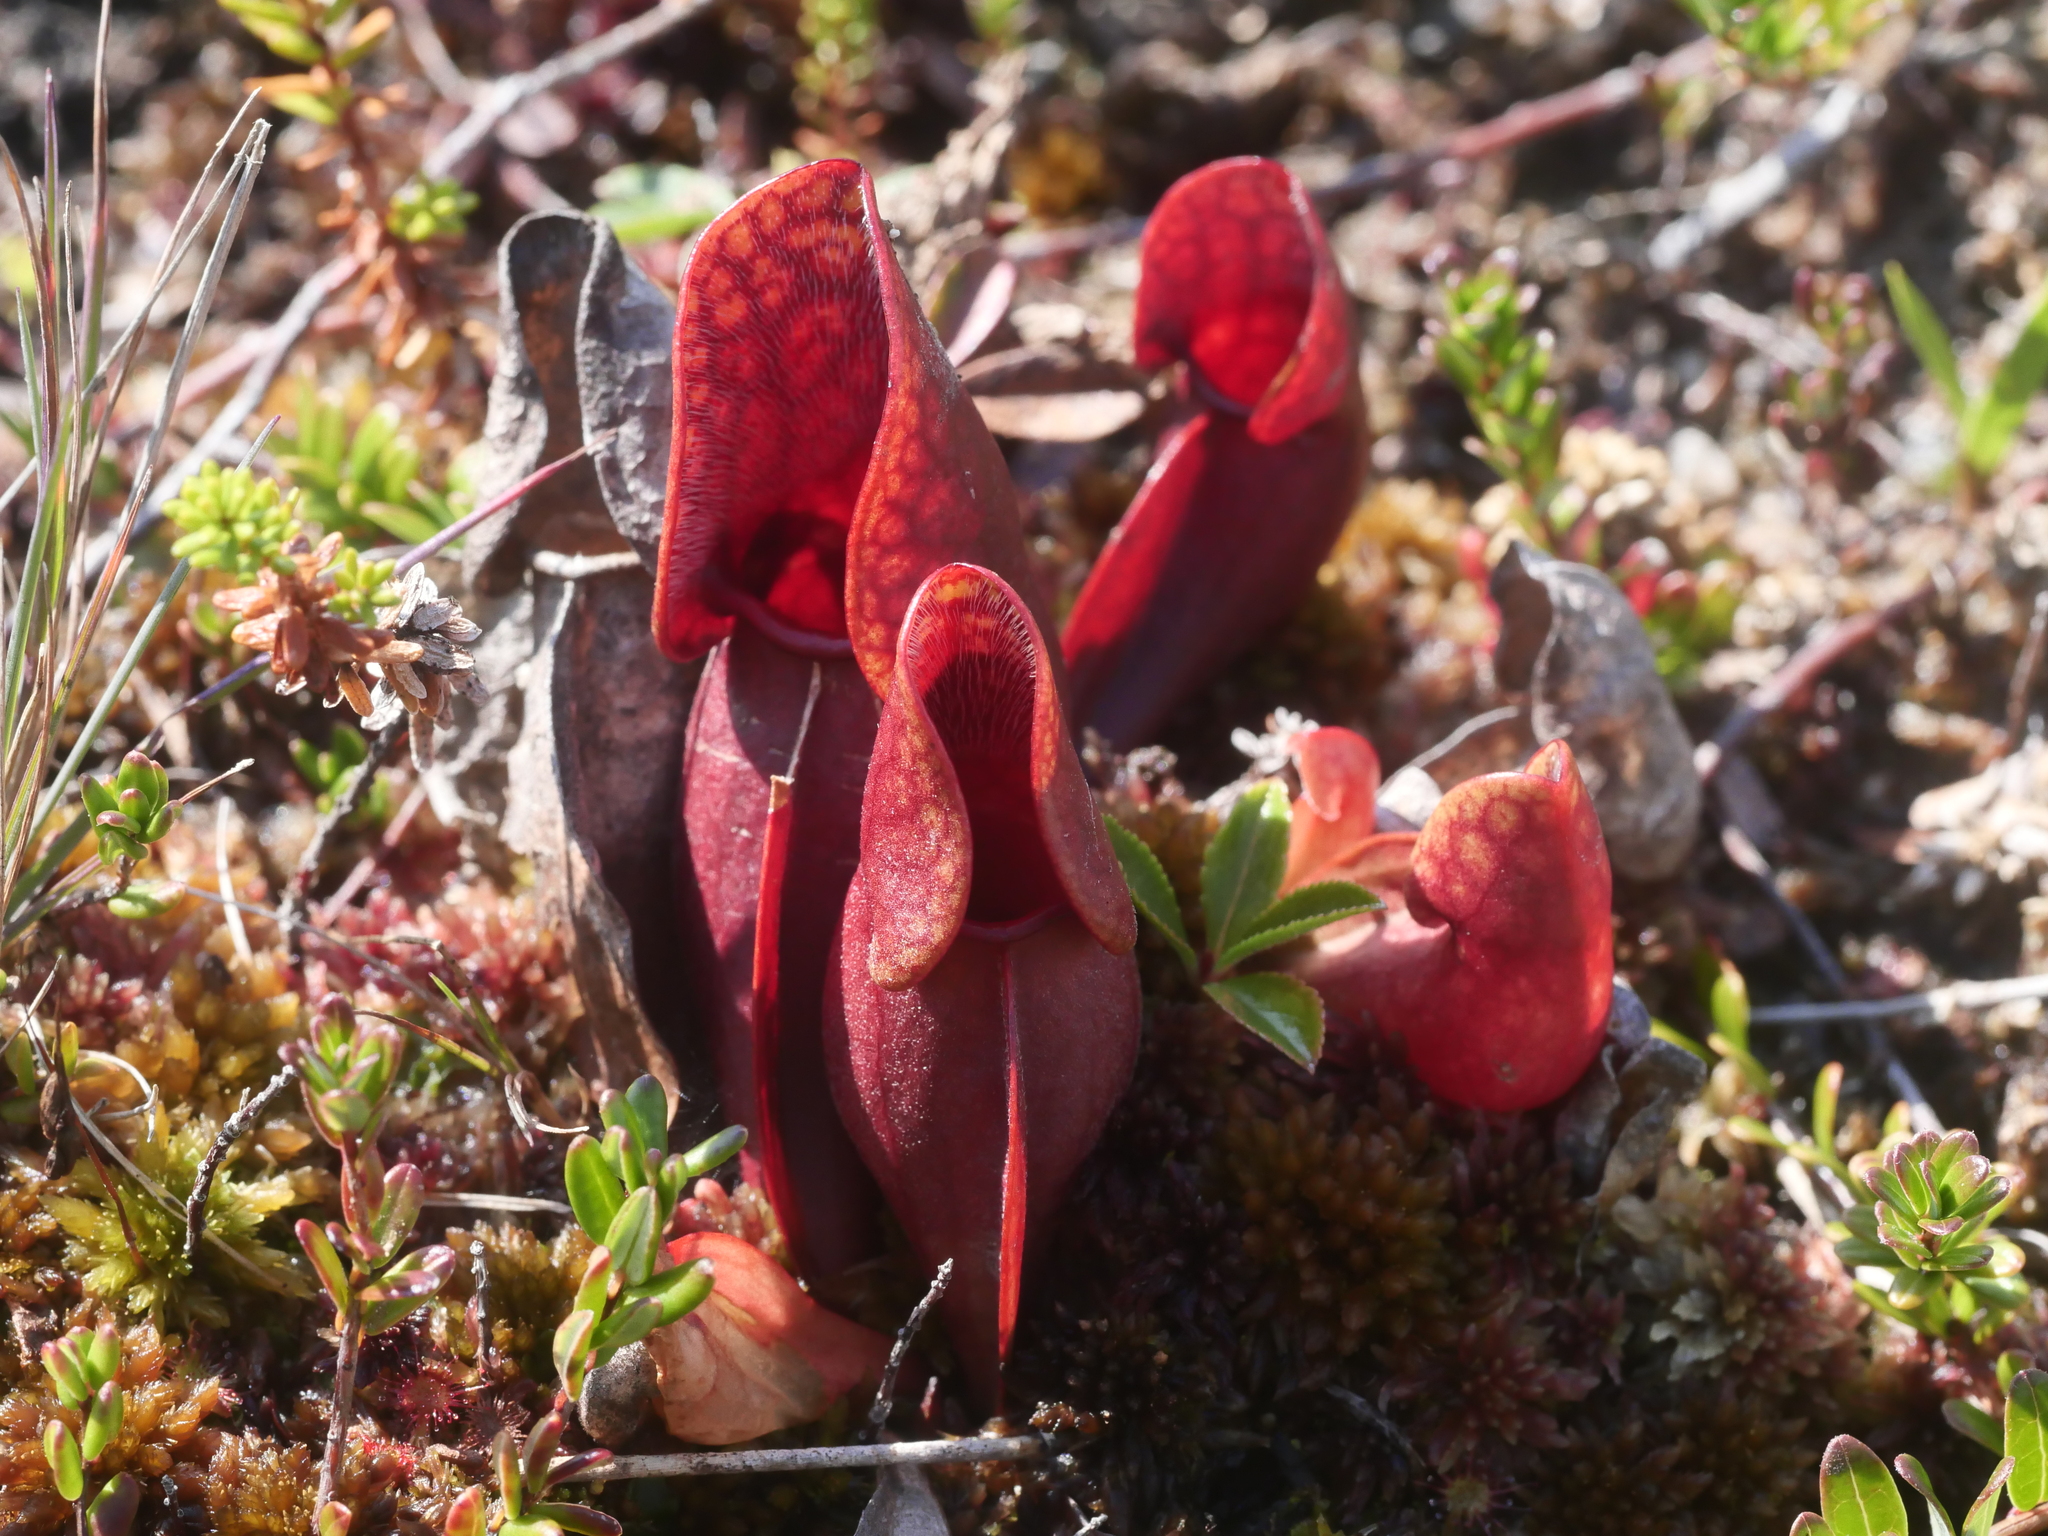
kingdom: Plantae
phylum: Tracheophyta
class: Magnoliopsida
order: Ericales
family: Sarraceniaceae
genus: Sarracenia
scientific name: Sarracenia purpurea
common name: Pitcherplant
